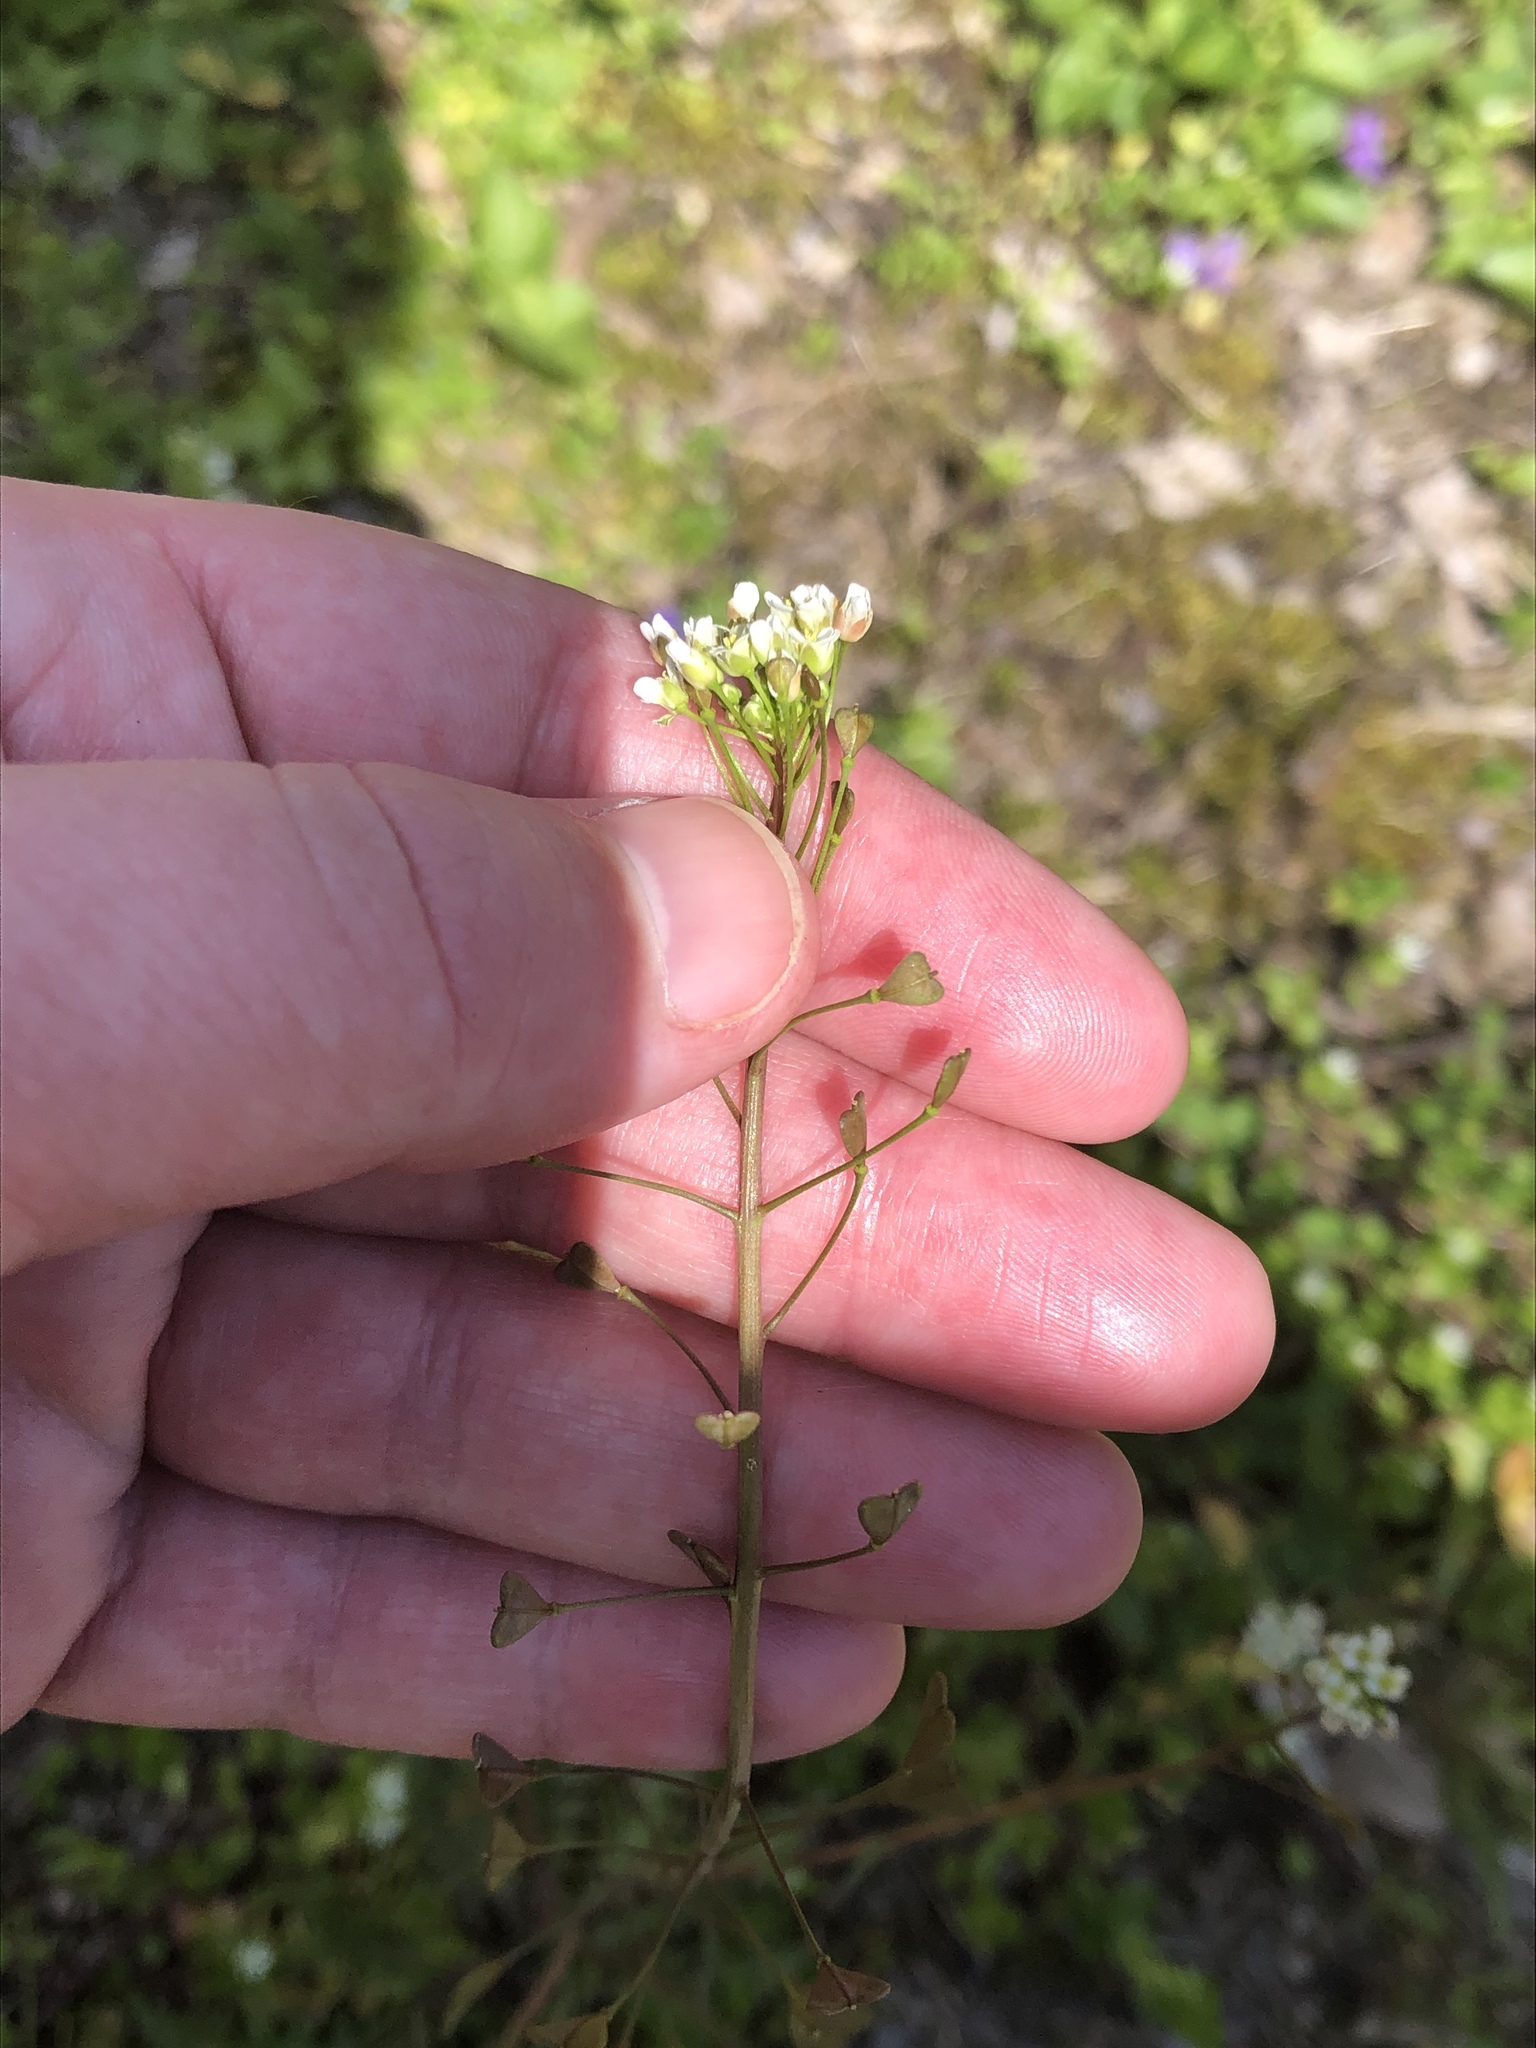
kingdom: Plantae
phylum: Tracheophyta
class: Magnoliopsida
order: Brassicales
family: Brassicaceae
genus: Capsella
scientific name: Capsella bursa-pastoris
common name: Shepherd's purse
